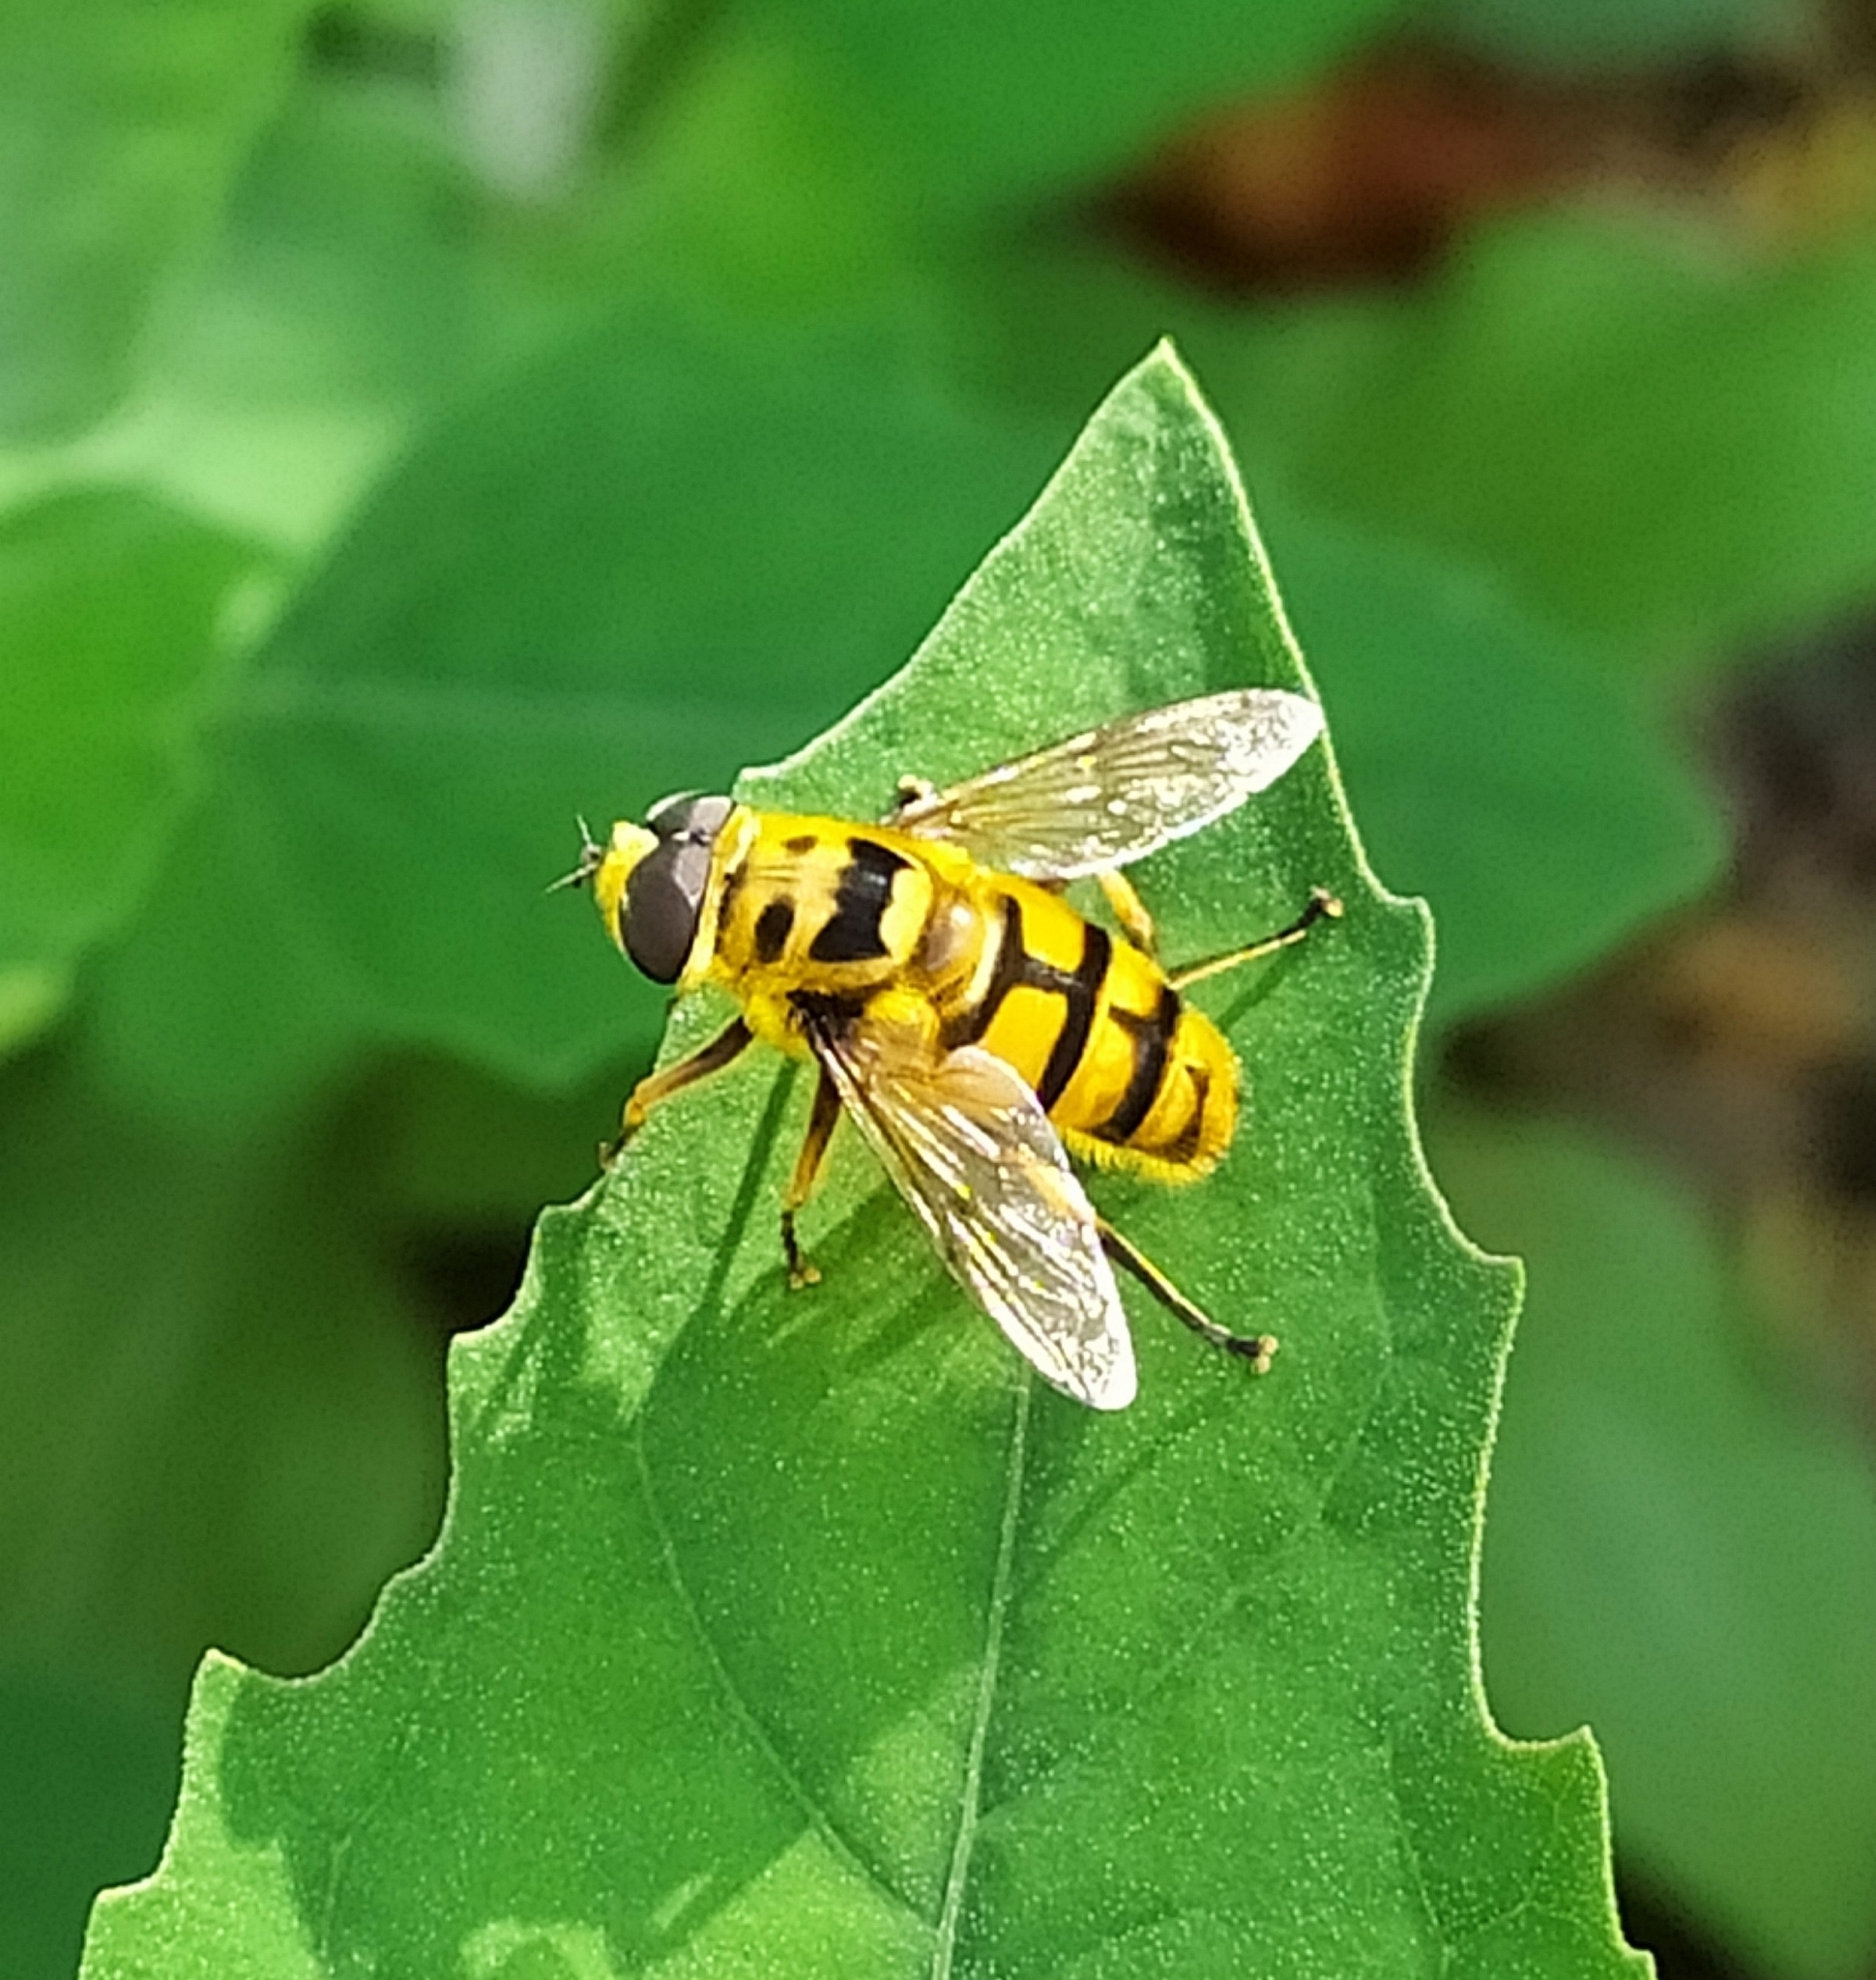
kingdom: Animalia
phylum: Arthropoda
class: Insecta
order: Diptera
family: Syrphidae
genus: Myathropa
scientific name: Myathropa florea
